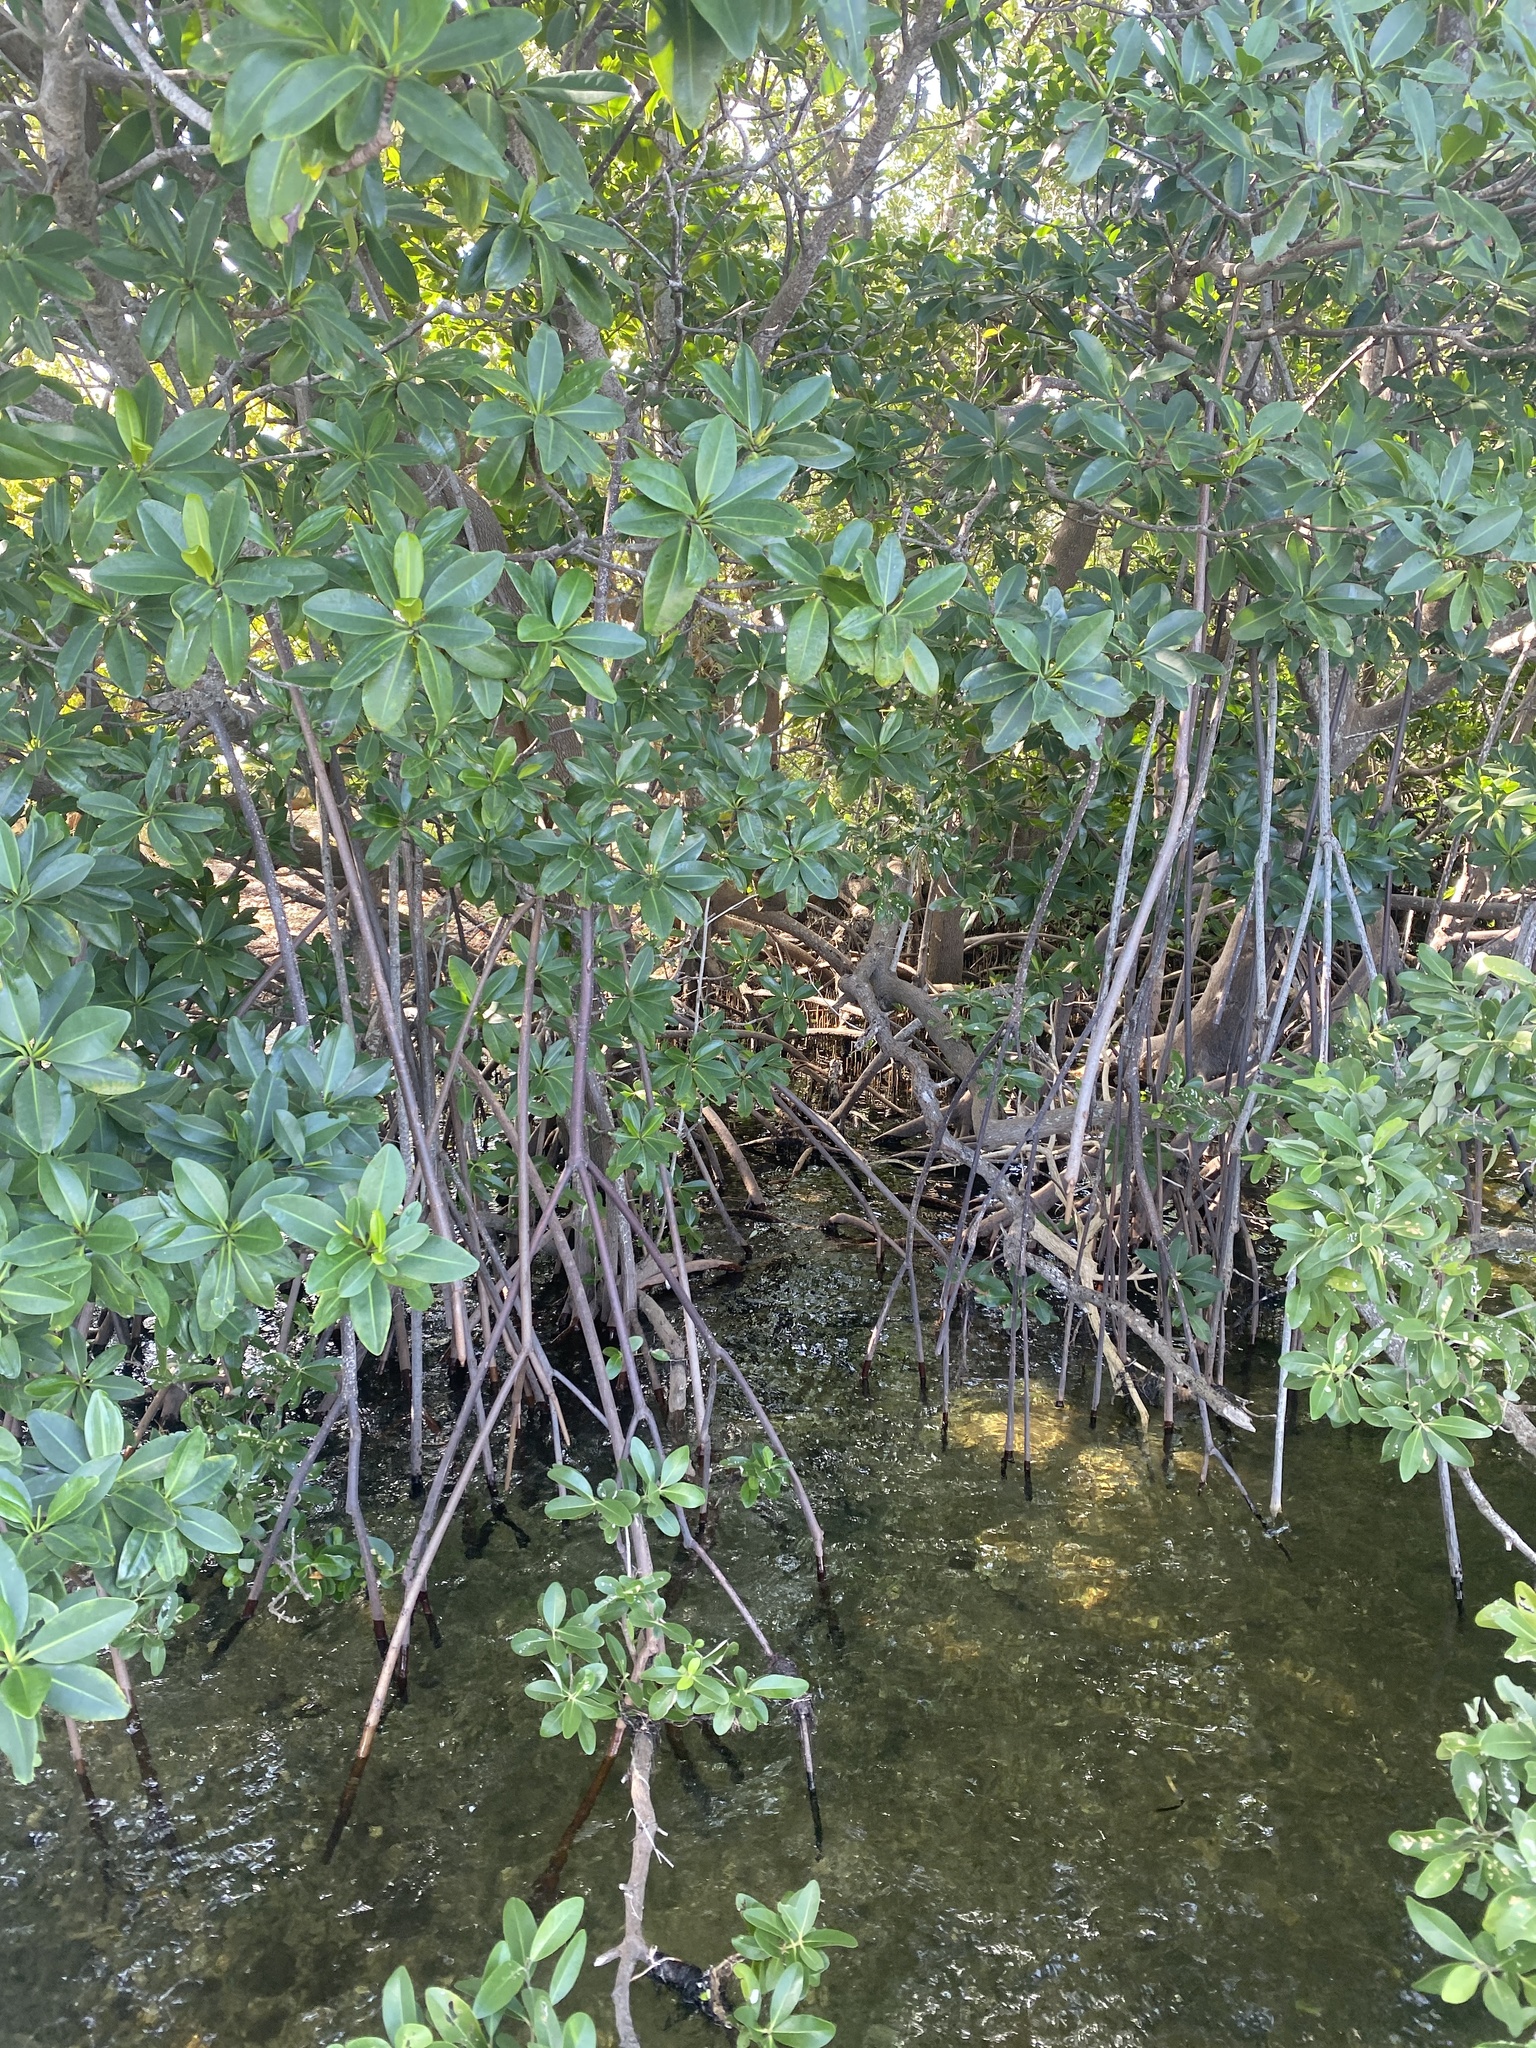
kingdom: Plantae
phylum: Tracheophyta
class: Magnoliopsida
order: Malpighiales
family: Rhizophoraceae
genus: Rhizophora
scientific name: Rhizophora mangle
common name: Red mangrove
